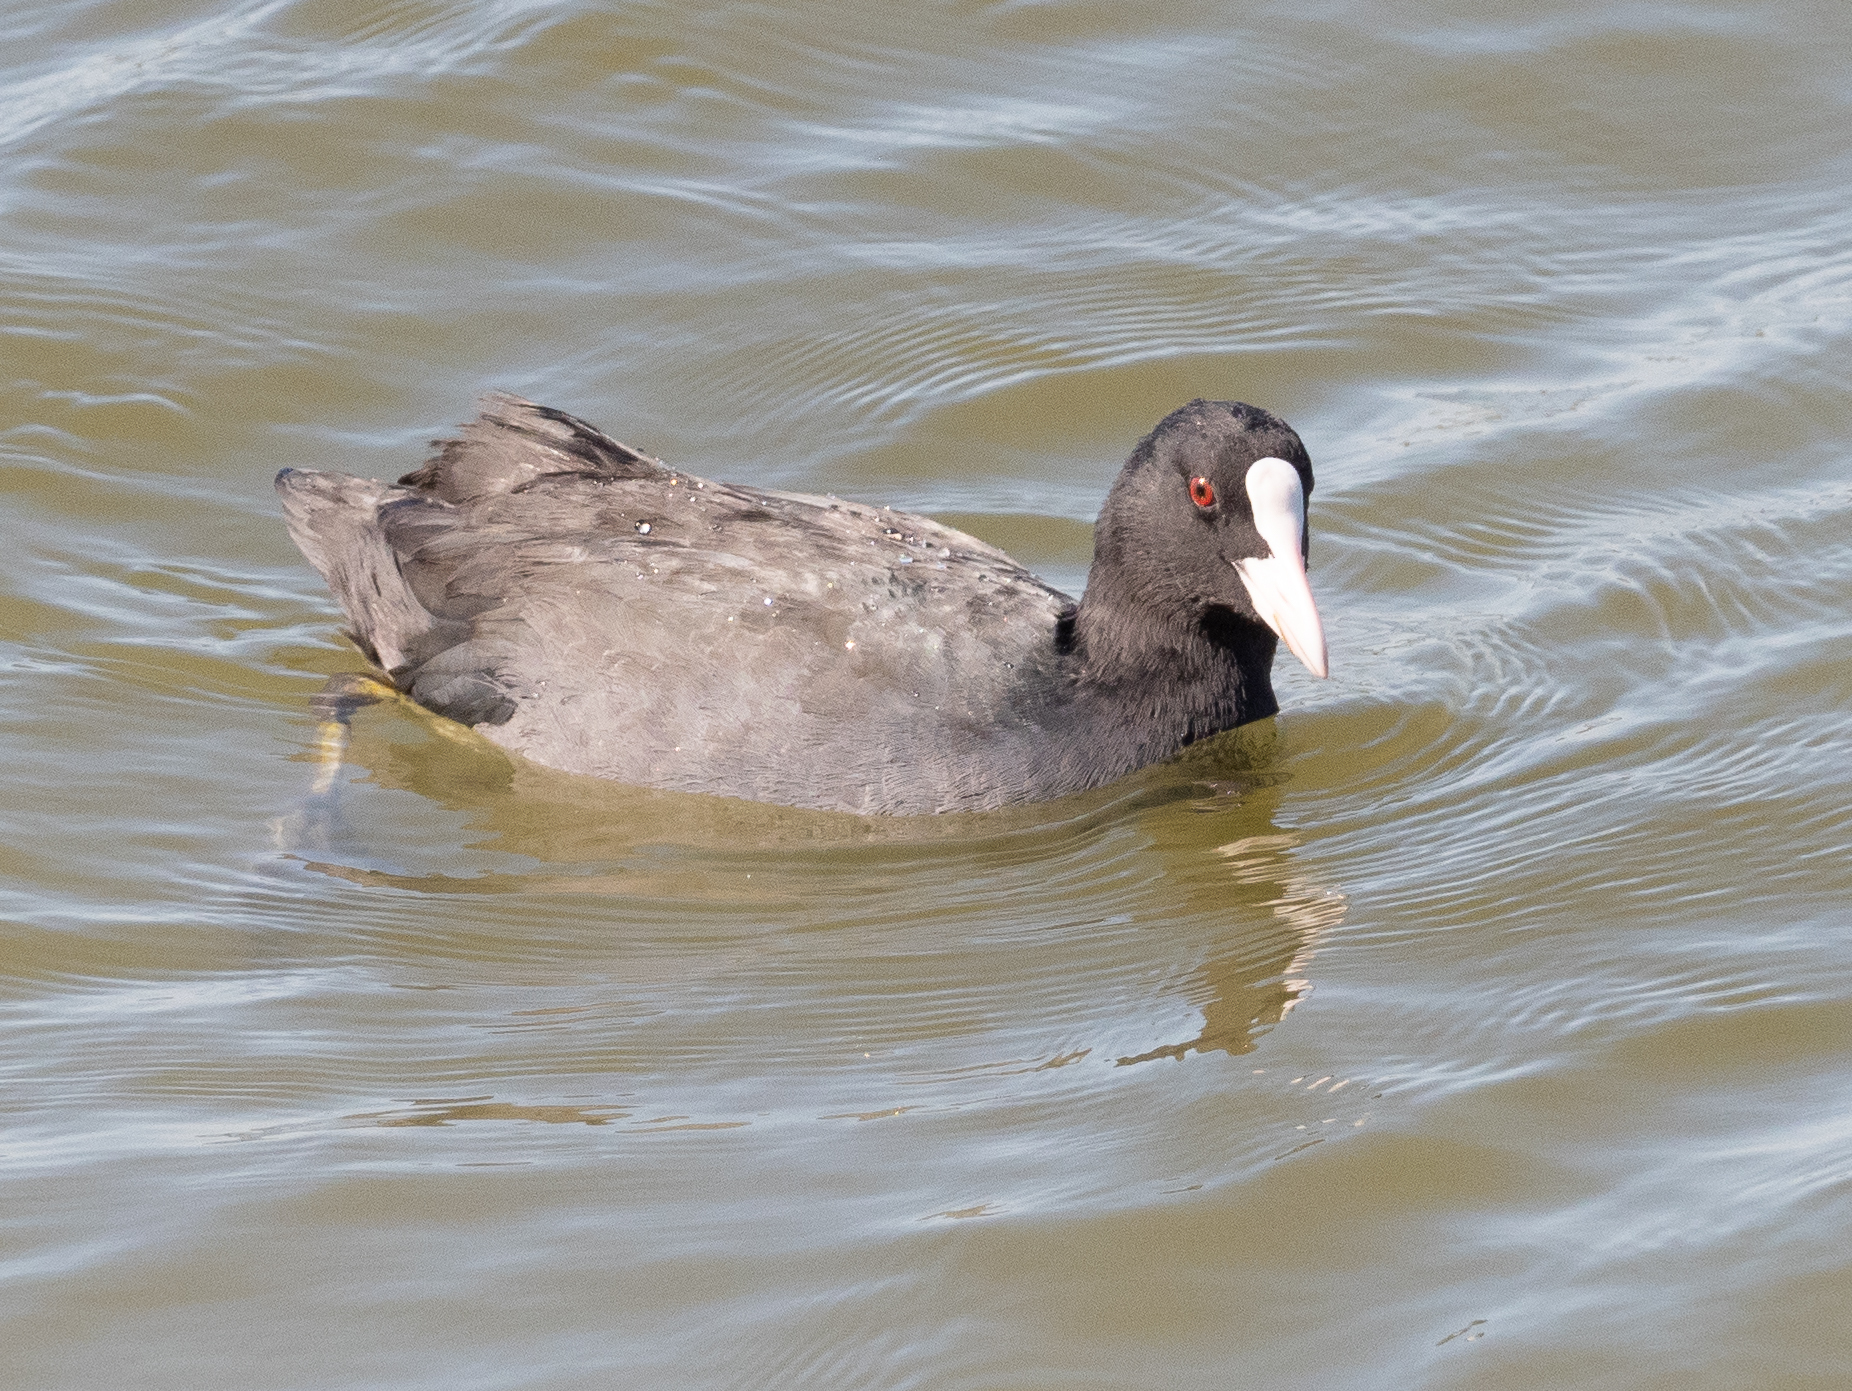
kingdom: Animalia
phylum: Chordata
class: Aves
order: Gruiformes
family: Rallidae
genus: Fulica
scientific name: Fulica atra
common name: Eurasian coot
